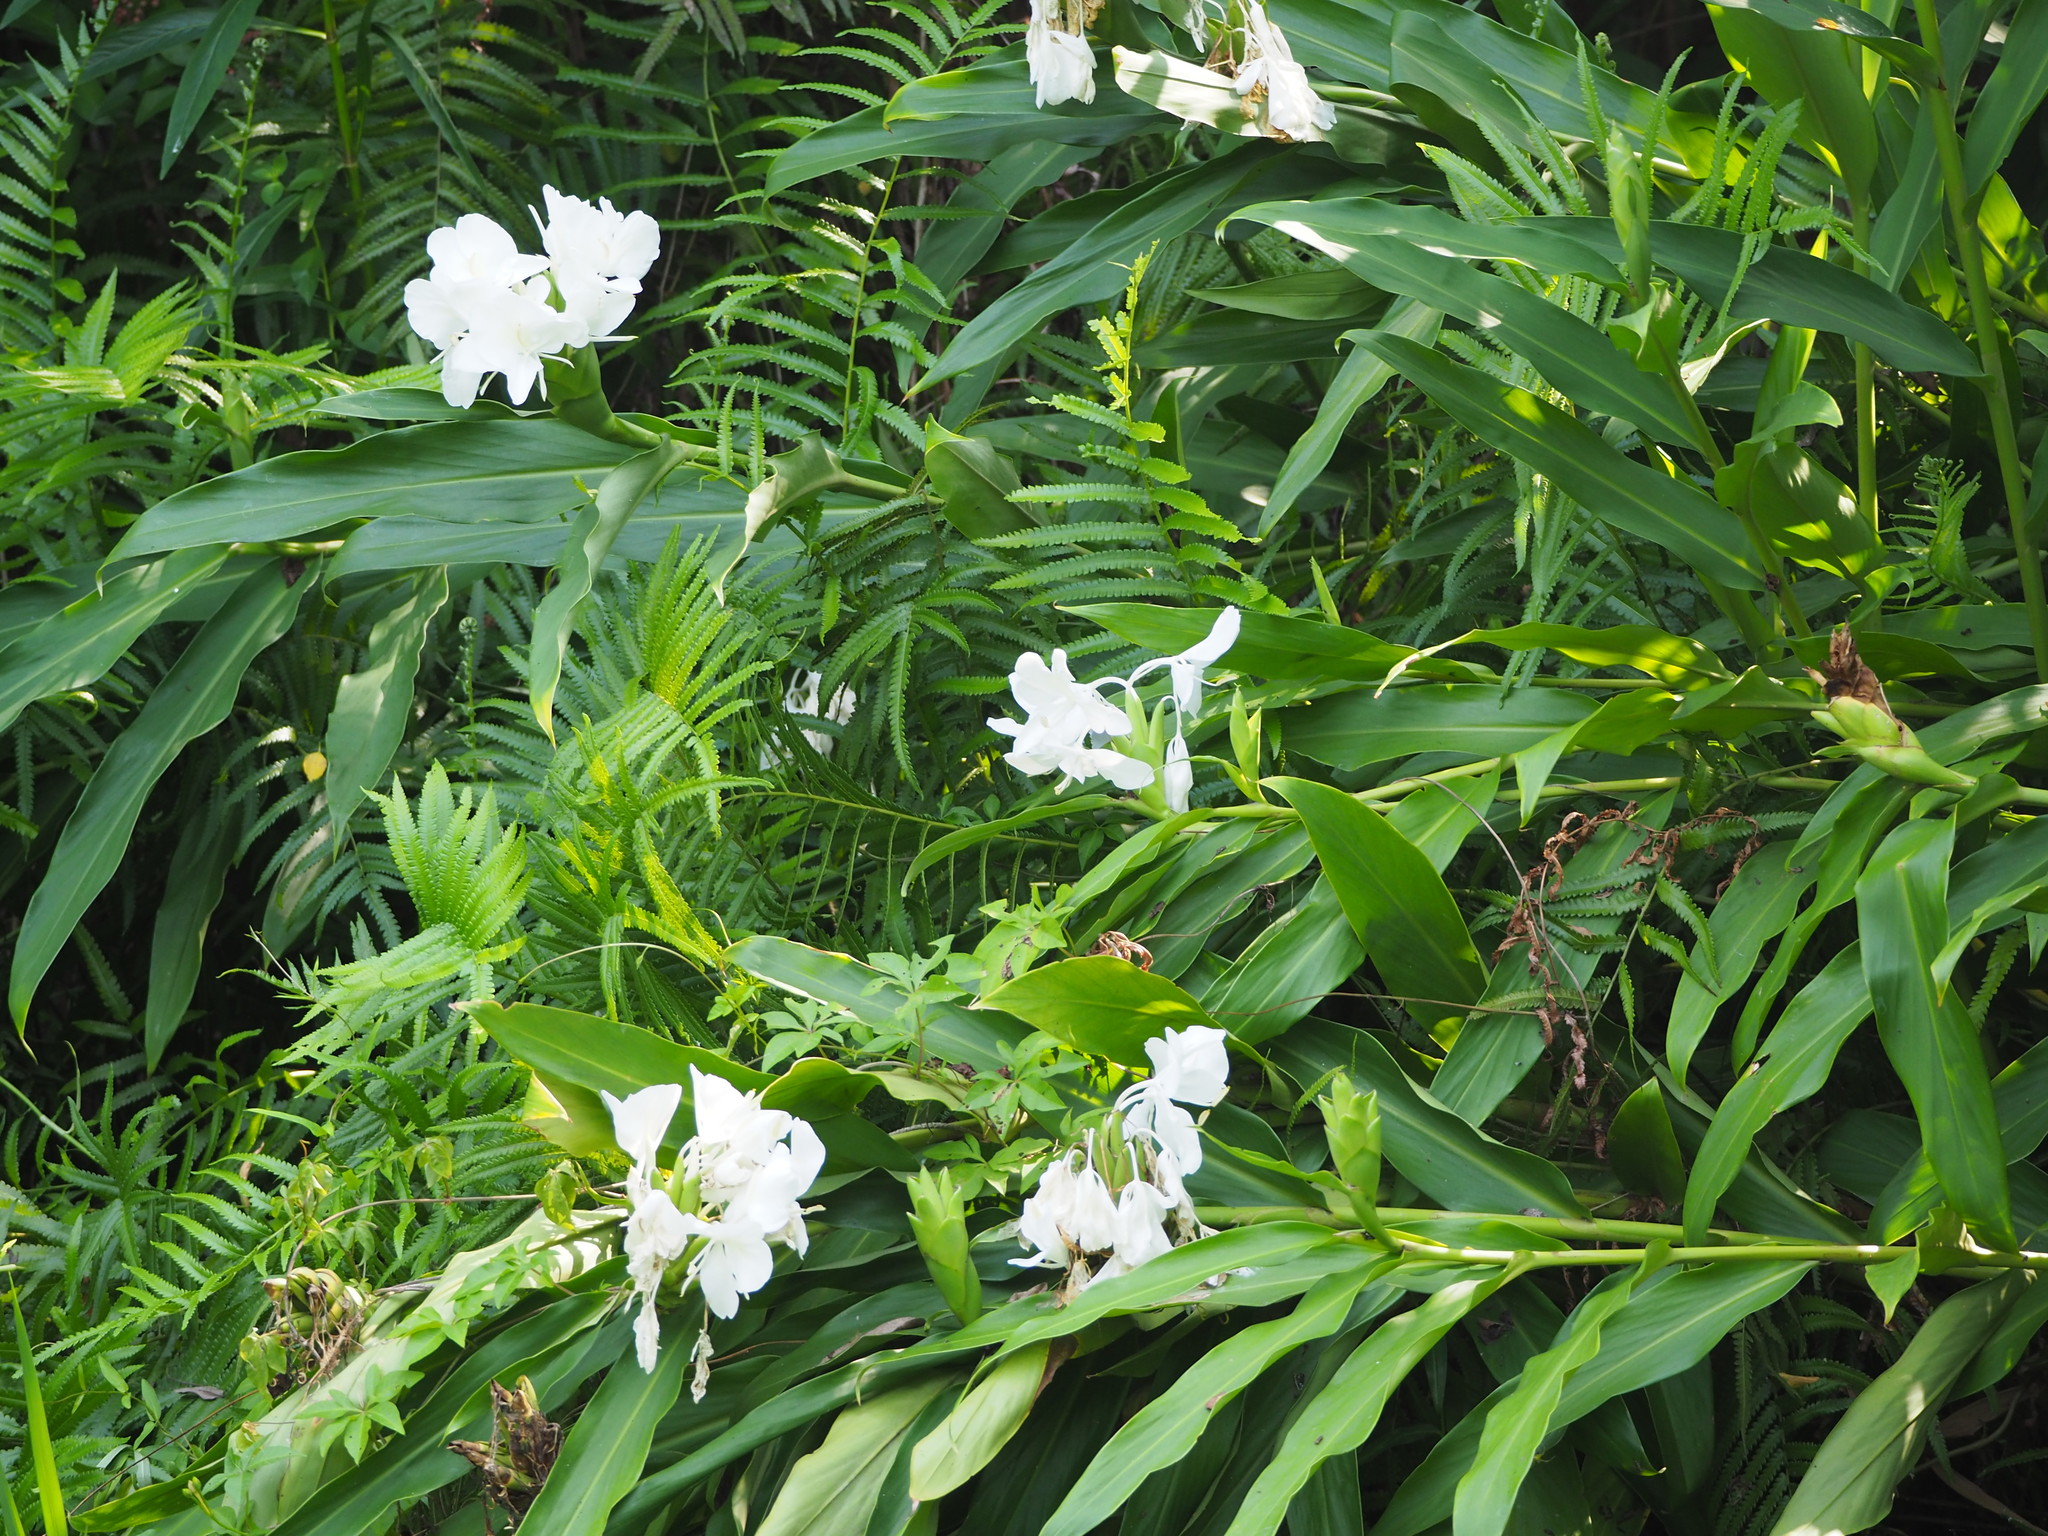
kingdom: Plantae
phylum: Tracheophyta
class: Liliopsida
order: Zingiberales
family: Zingiberaceae
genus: Hedychium
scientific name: Hedychium coronarium
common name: White garland-lily
